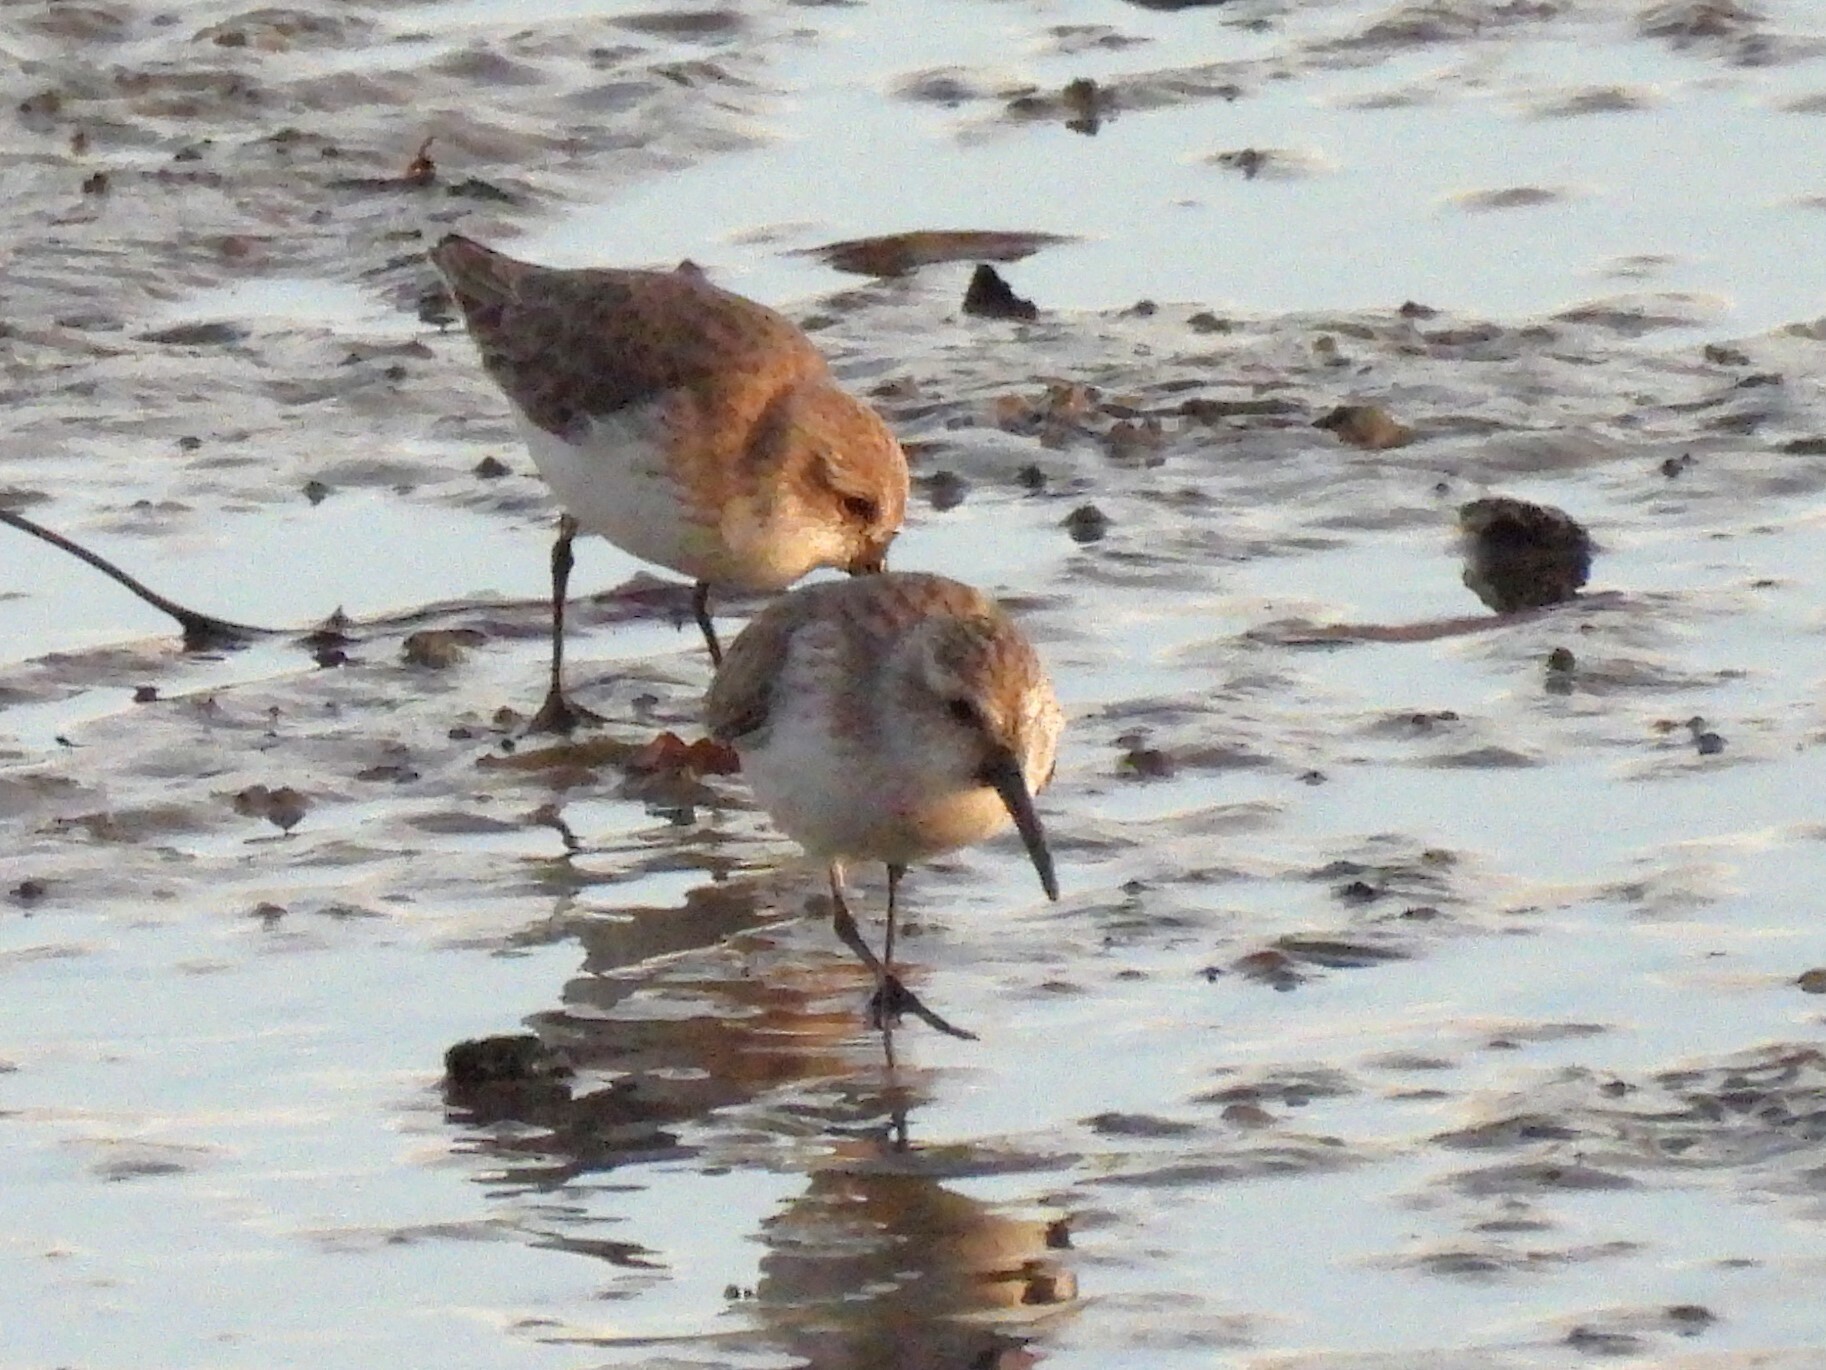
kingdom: Animalia
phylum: Chordata
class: Aves
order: Charadriiformes
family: Scolopacidae
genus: Calidris
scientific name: Calidris mauri
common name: Western sandpiper
